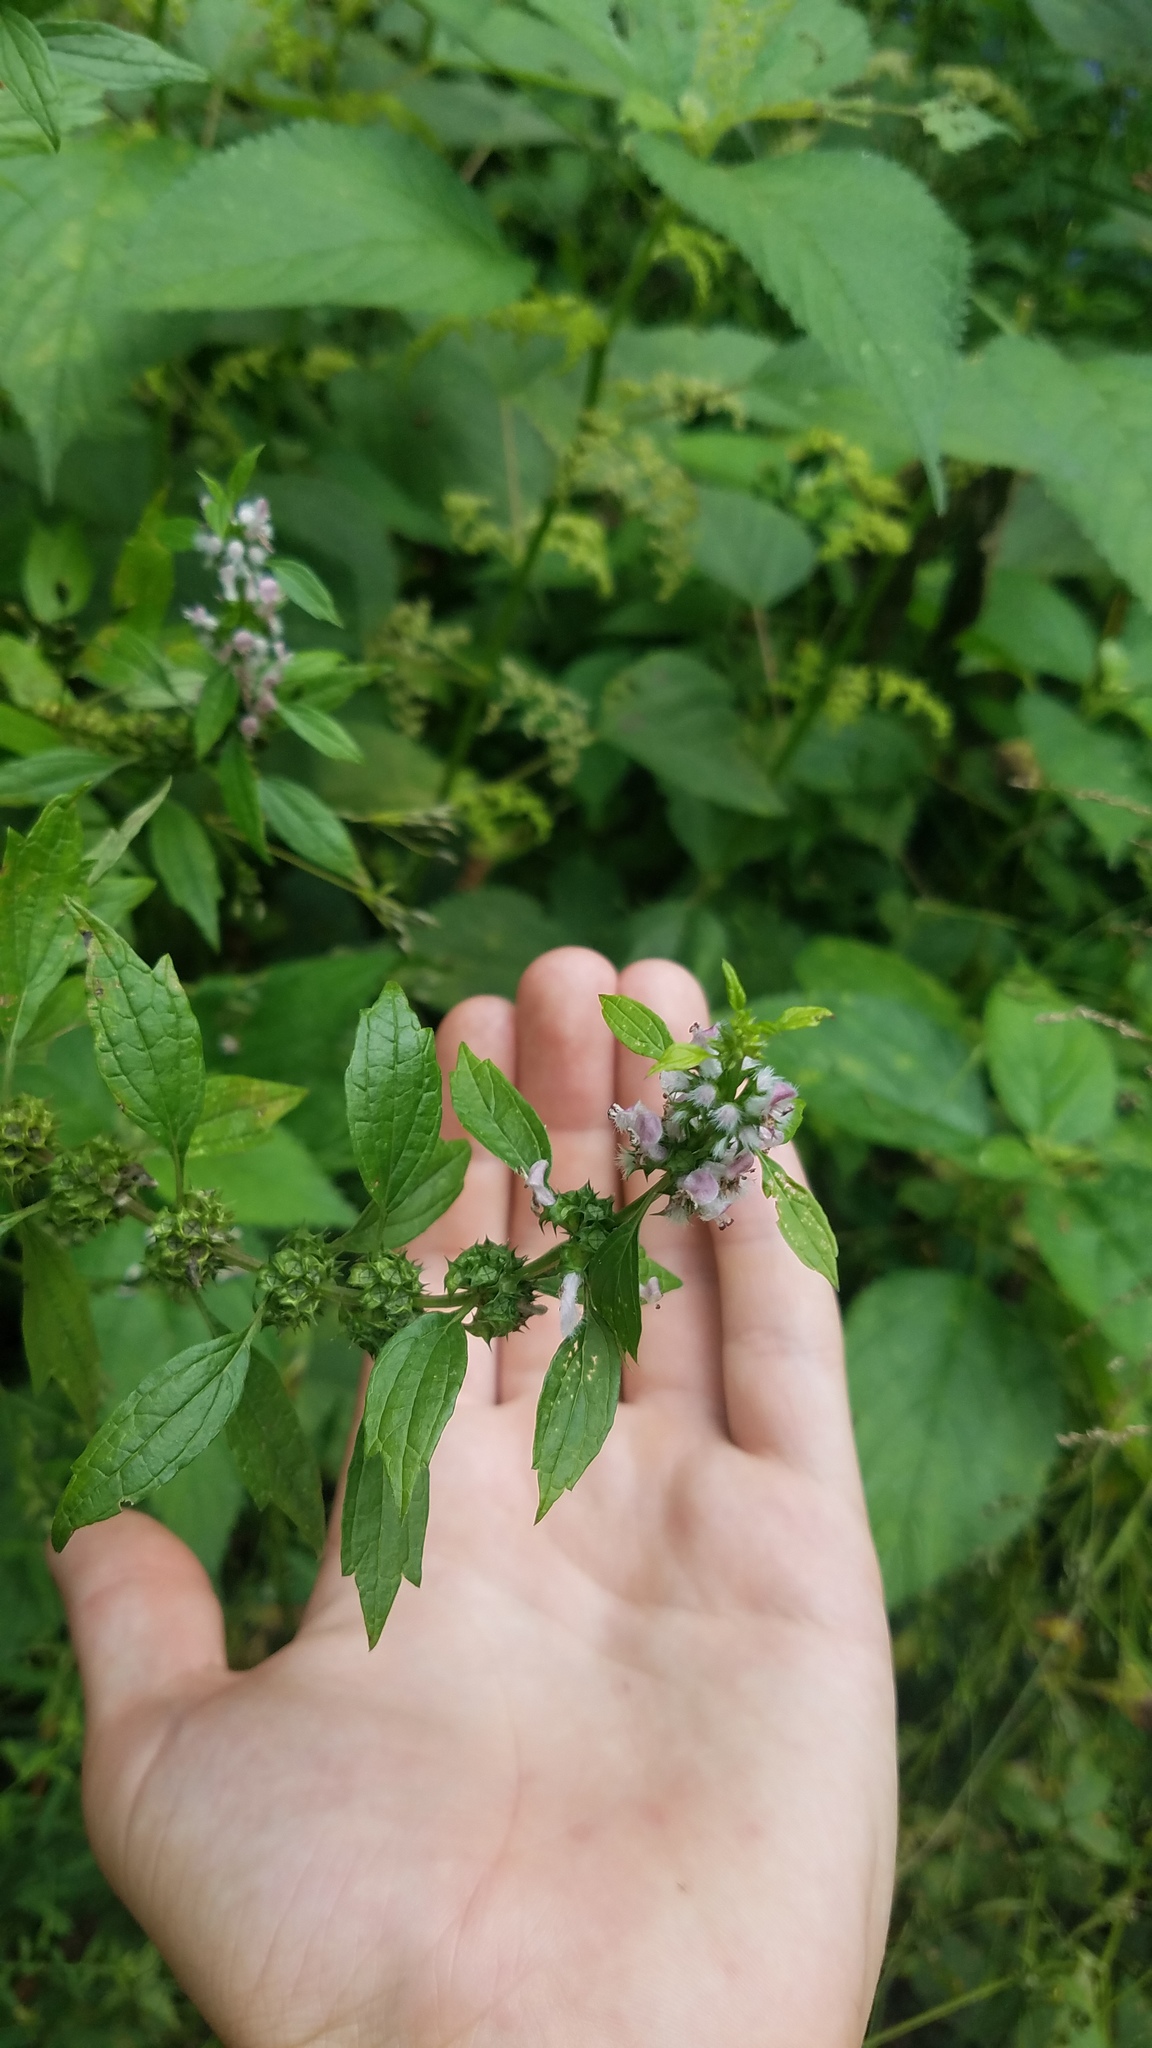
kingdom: Plantae
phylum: Tracheophyta
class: Magnoliopsida
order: Lamiales
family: Lamiaceae
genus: Leonurus
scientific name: Leonurus cardiaca
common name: Motherwort
